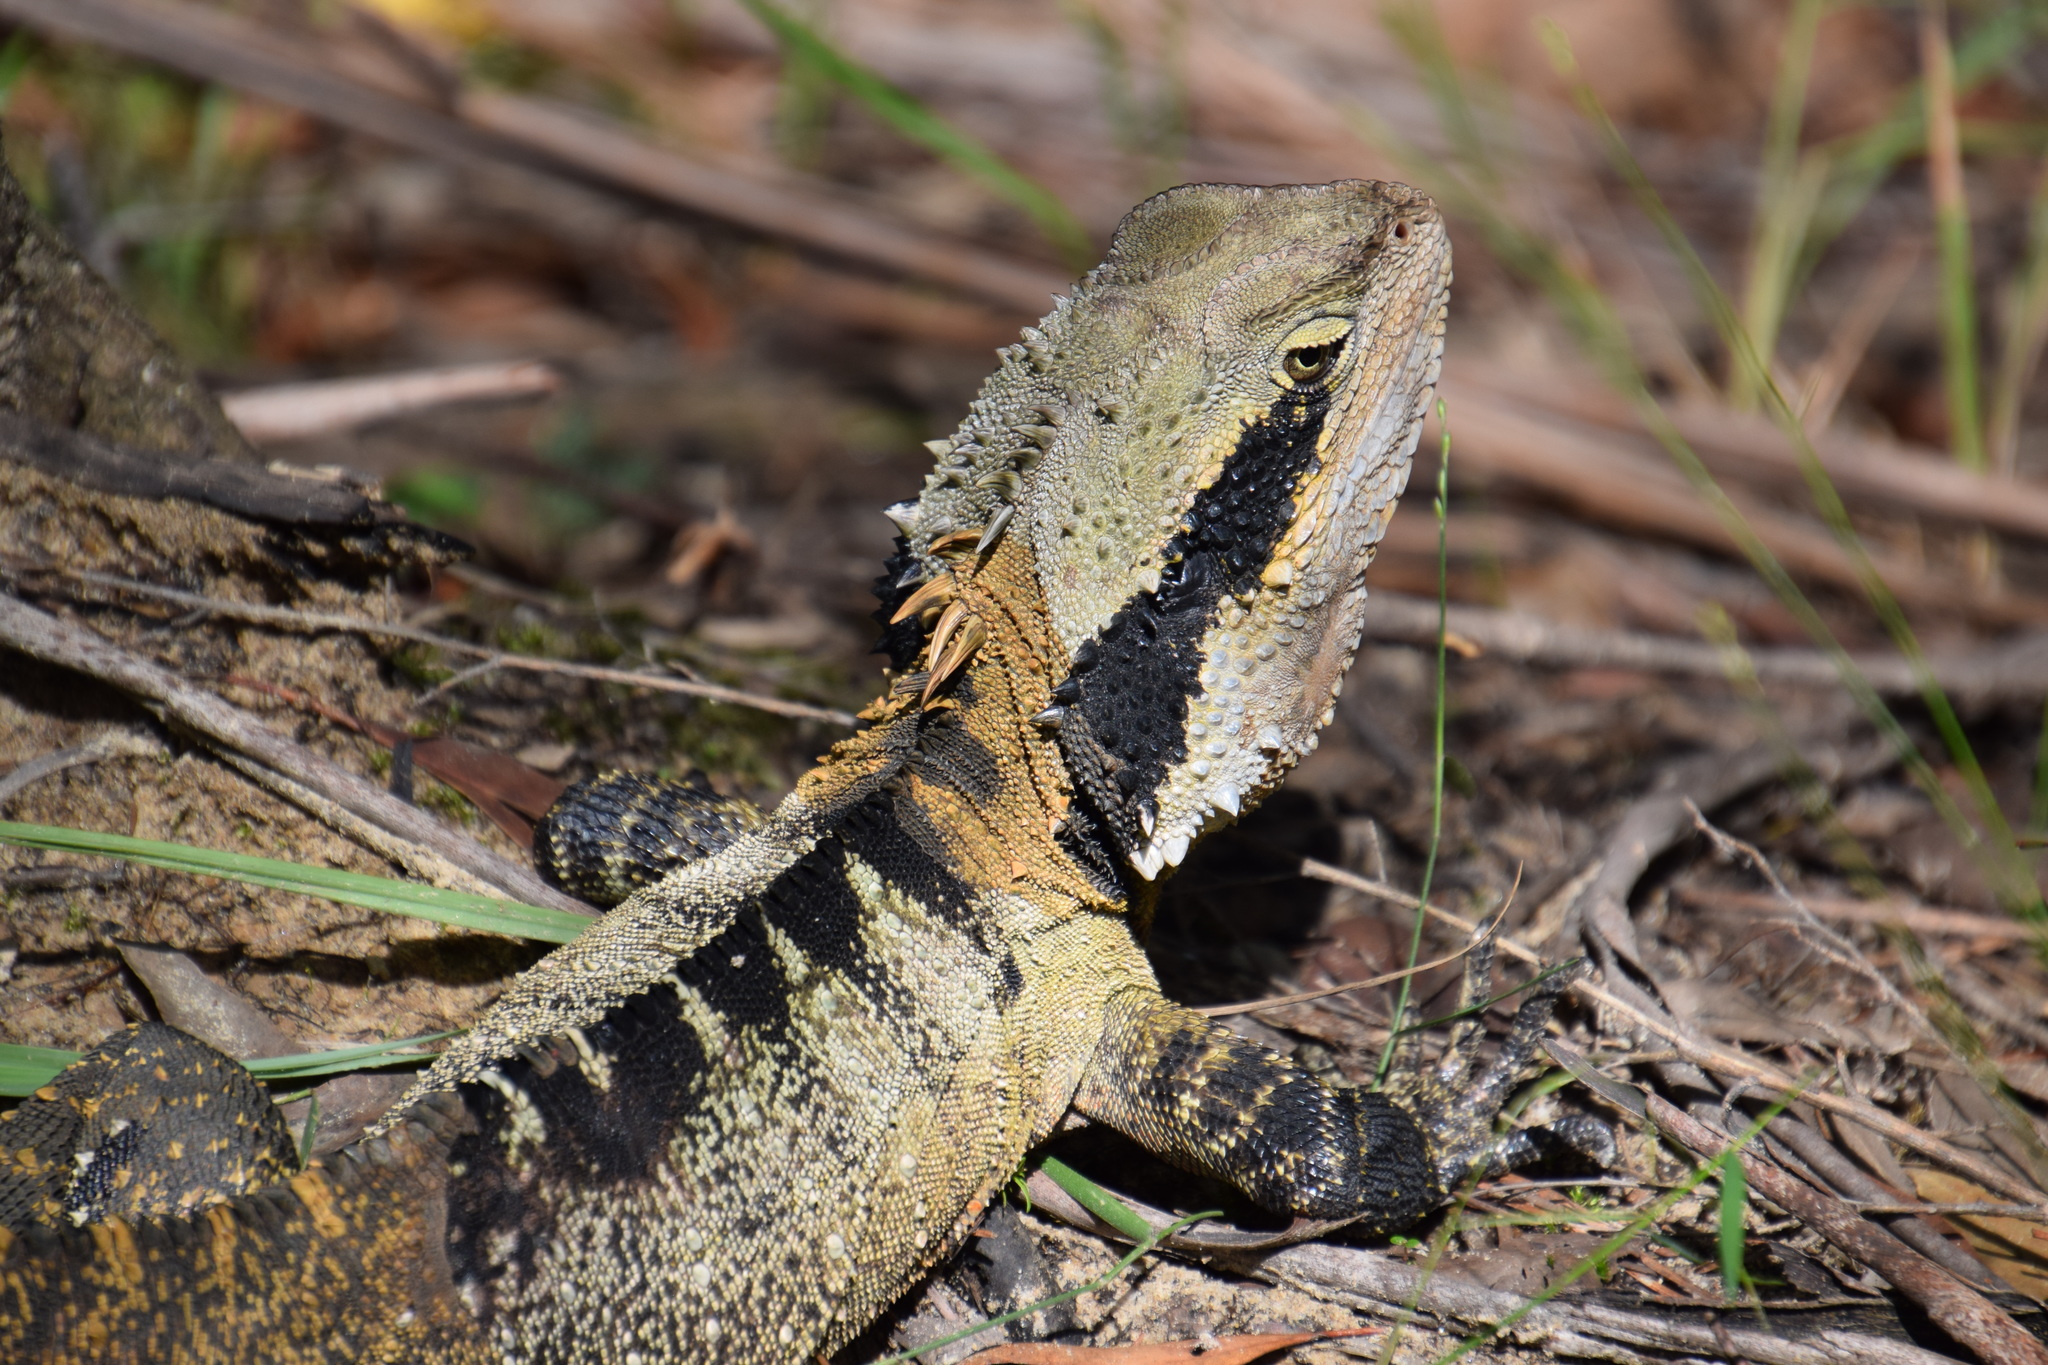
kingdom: Animalia
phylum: Chordata
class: Squamata
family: Agamidae
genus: Intellagama
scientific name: Intellagama lesueurii
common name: Eastern water dragon
